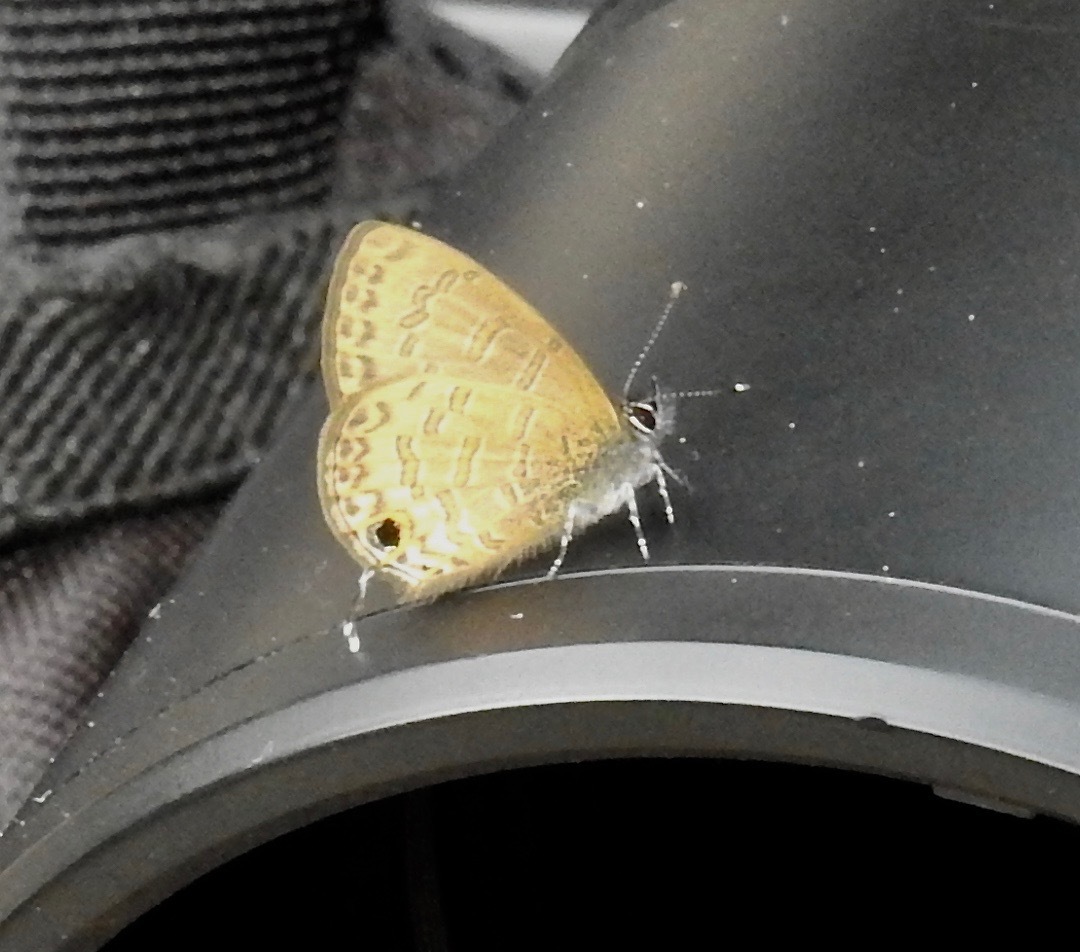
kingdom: Animalia
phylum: Arthropoda
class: Insecta
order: Lepidoptera
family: Lycaenidae
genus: Prosotas
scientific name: Prosotas nora
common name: Common line blue
